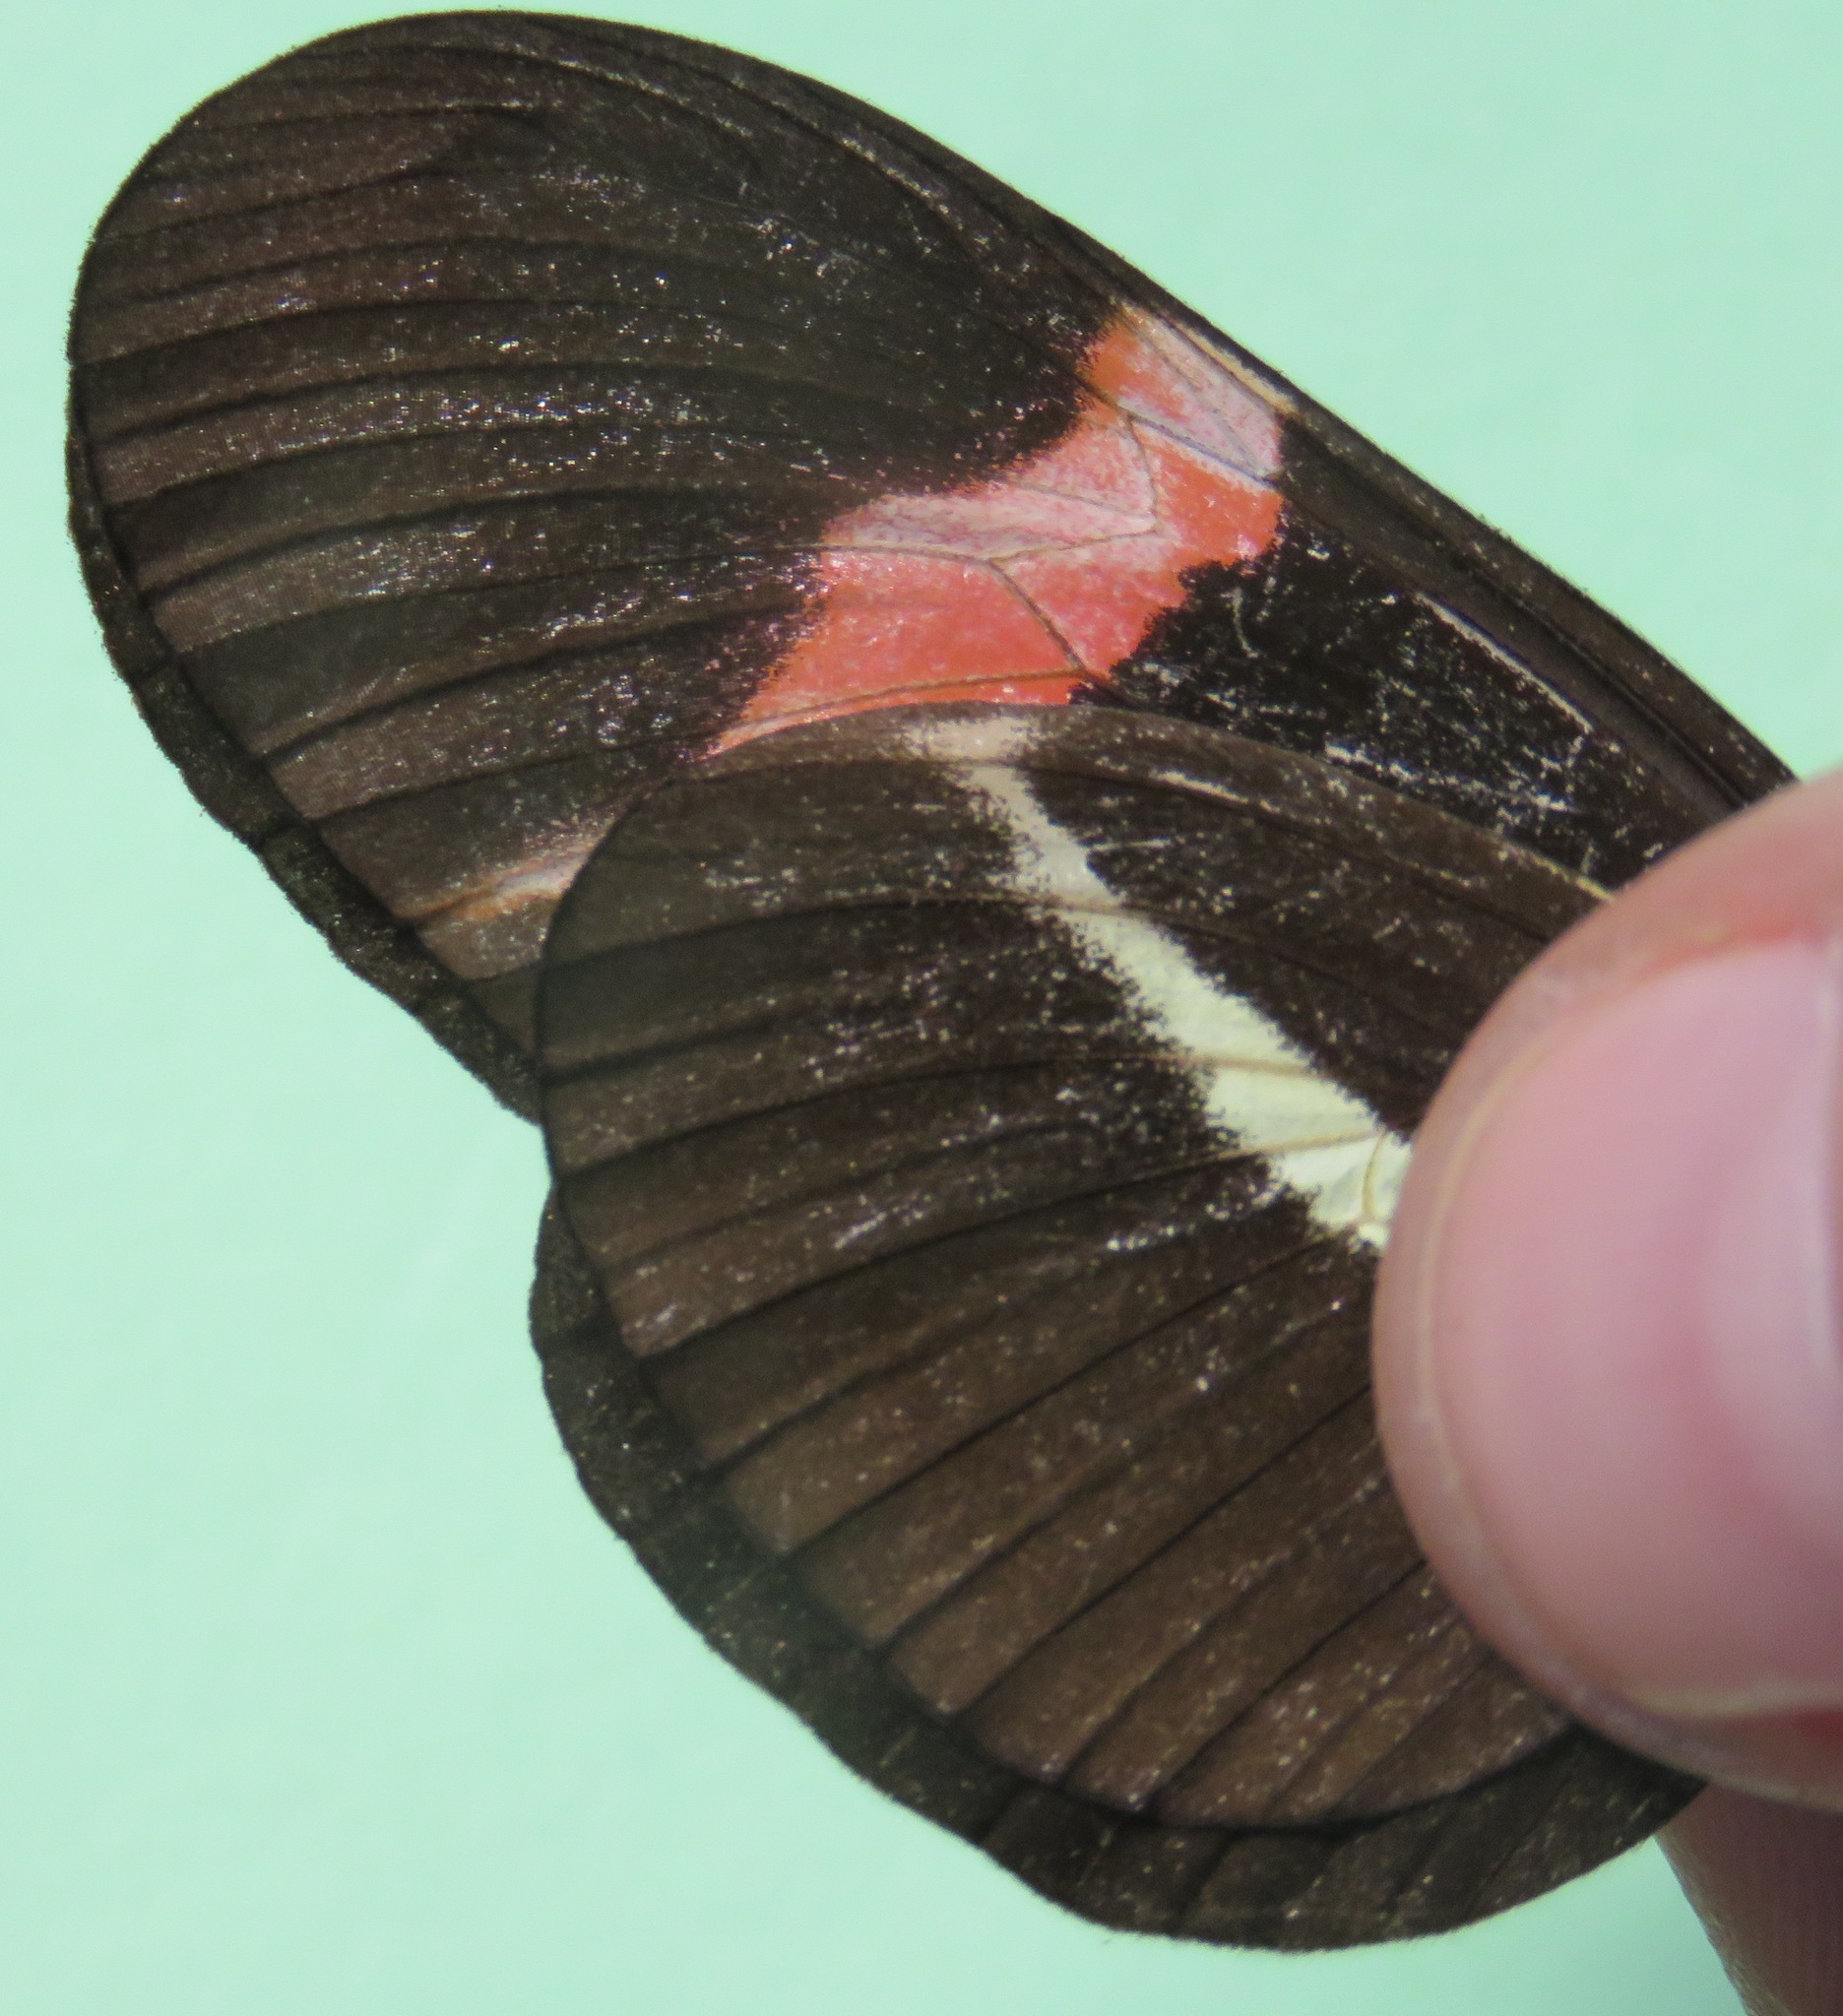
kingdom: Animalia
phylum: Arthropoda
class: Insecta
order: Lepidoptera
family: Nymphalidae
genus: Tirumala
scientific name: Tirumala petiverana
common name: Blue monarch
